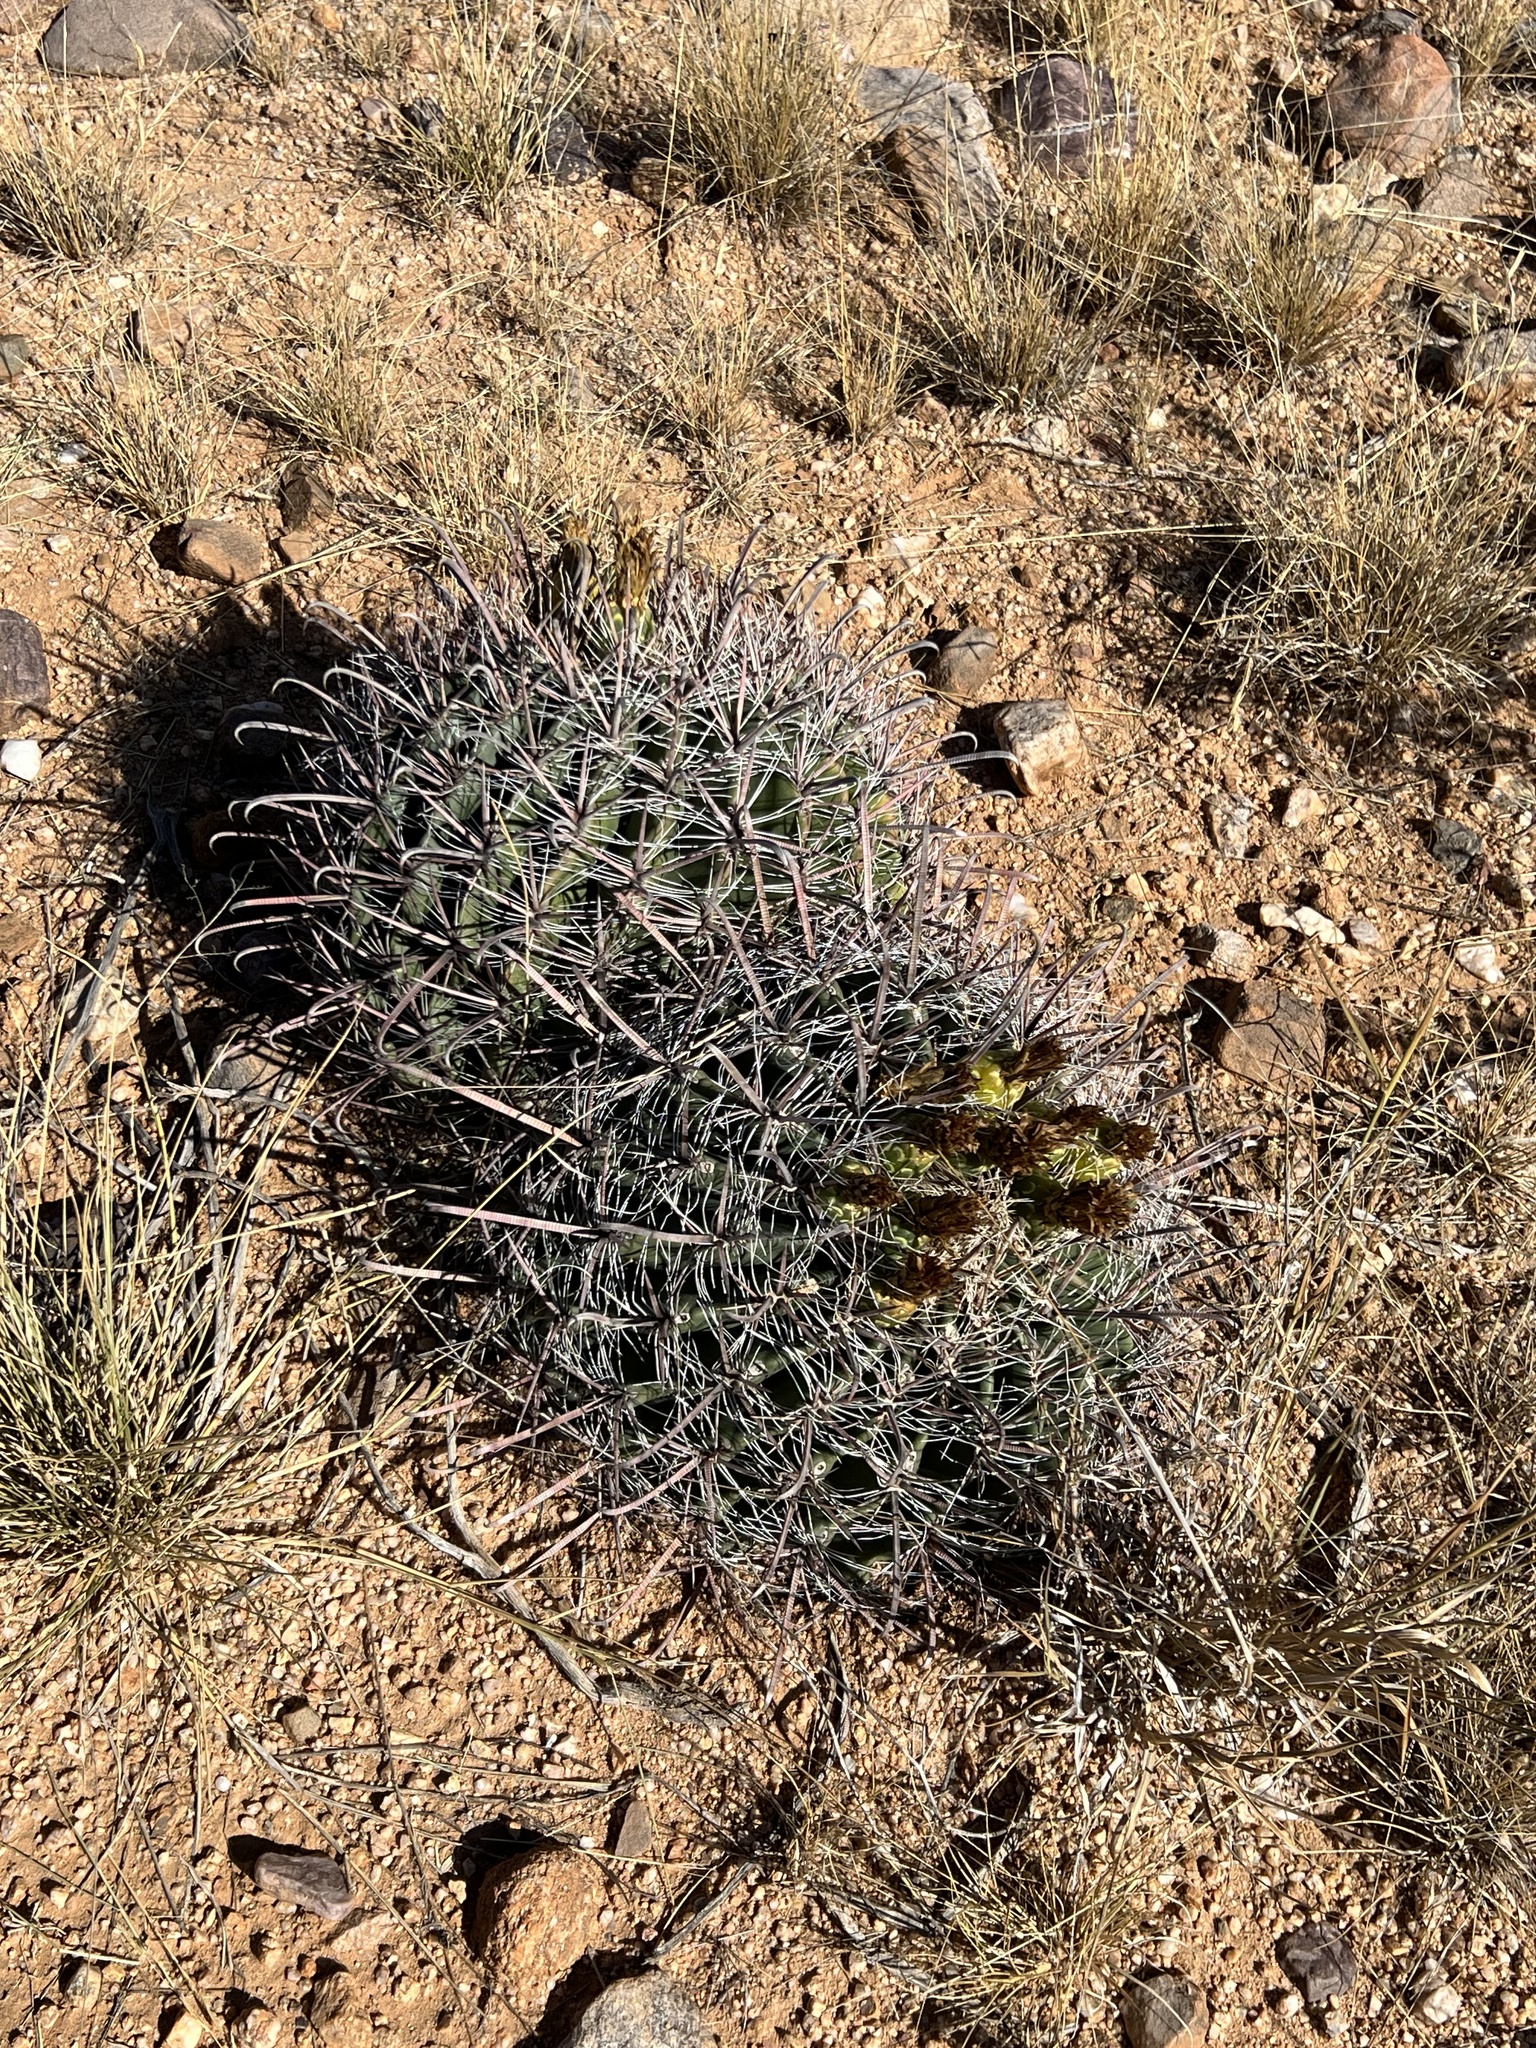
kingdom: Plantae
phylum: Tracheophyta
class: Magnoliopsida
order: Caryophyllales
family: Cactaceae
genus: Ferocactus
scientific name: Ferocactus wislizeni
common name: Candy barrel cactus
